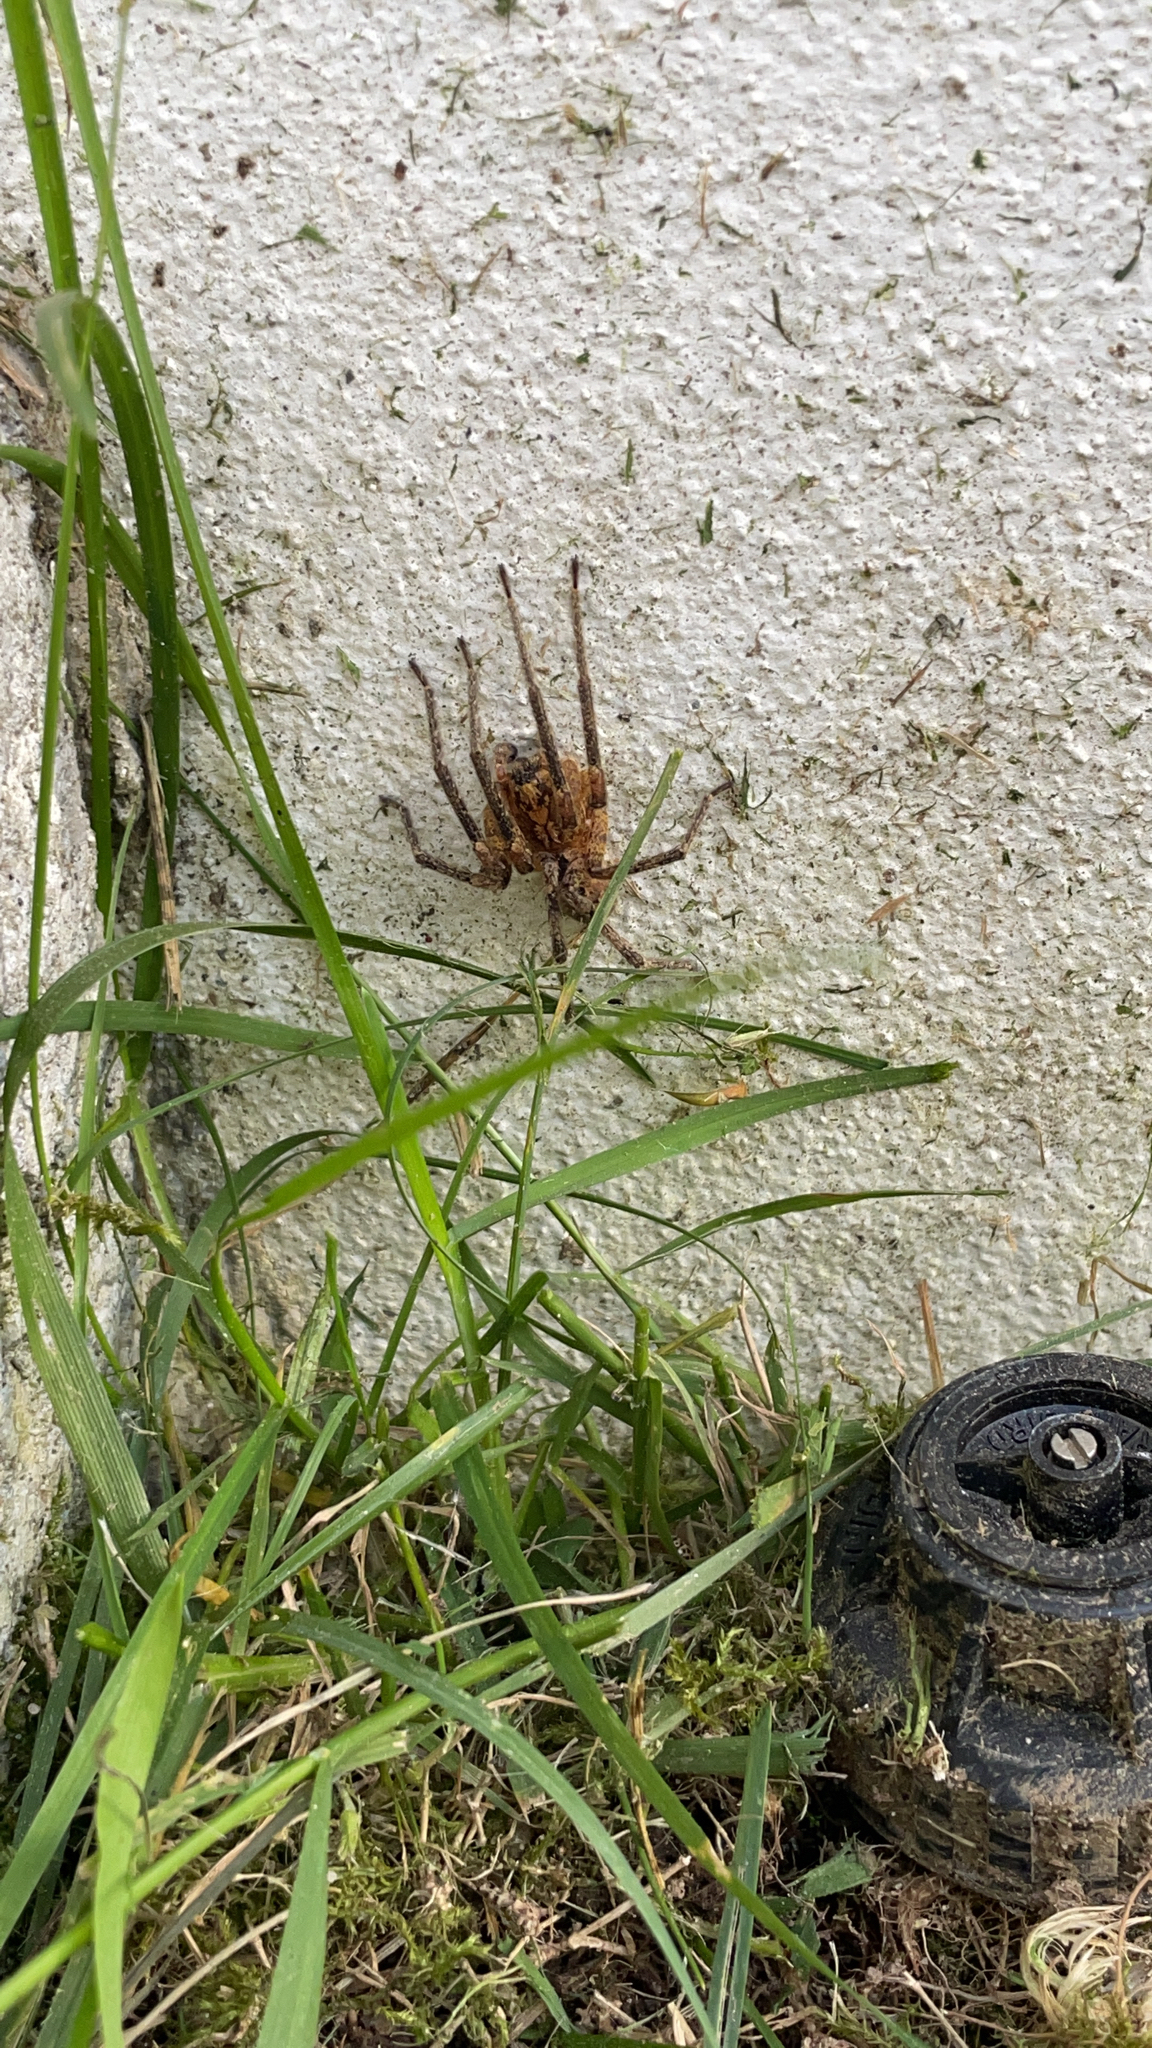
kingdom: Animalia
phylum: Arthropoda
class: Arachnida
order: Araneae
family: Zoropsidae
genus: Zoropsis
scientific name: Zoropsis spinimana
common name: Zoropsid spider
